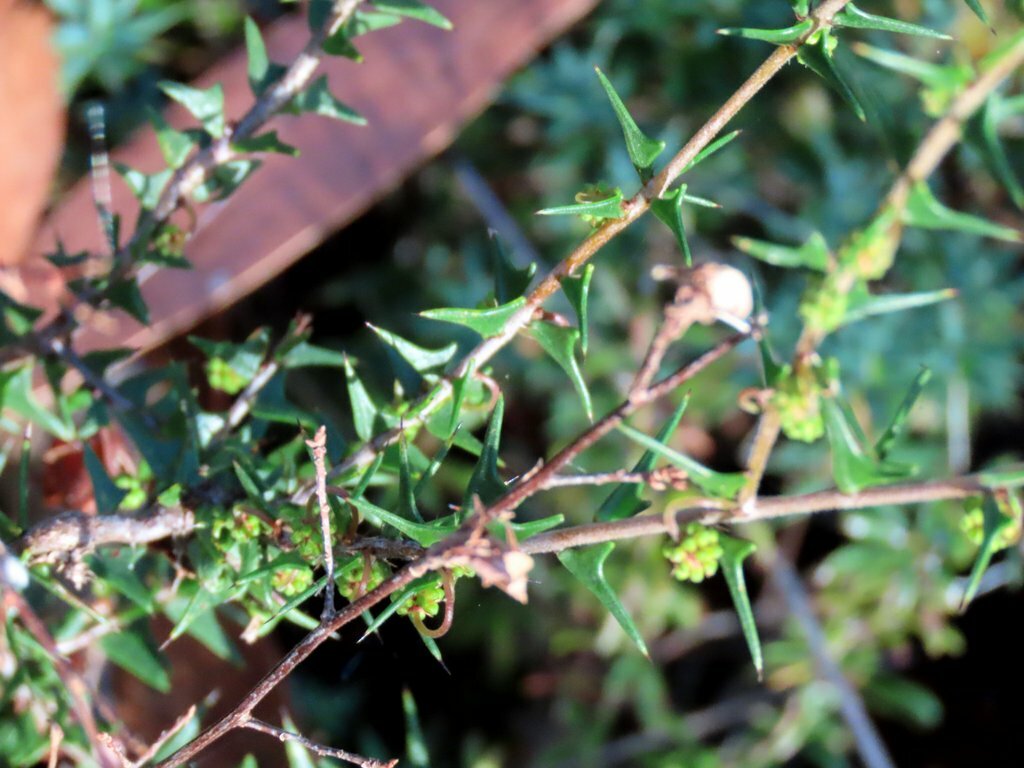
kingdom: Plantae
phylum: Tracheophyta
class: Magnoliopsida
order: Fabales
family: Fabaceae
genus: Acacia
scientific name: Acacia gunnii
